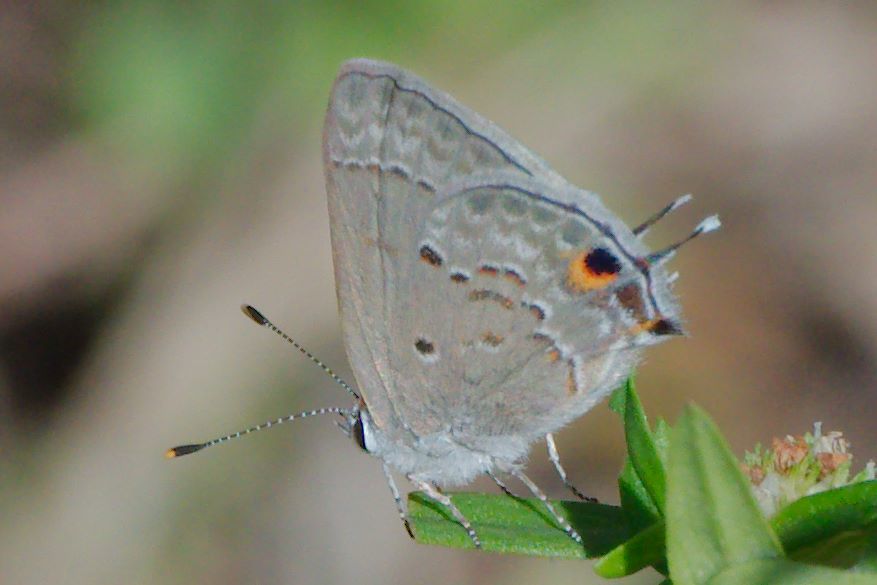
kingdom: Animalia
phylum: Arthropoda
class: Insecta
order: Lepidoptera
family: Lycaenidae
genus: Callicista
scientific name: Callicista columella
